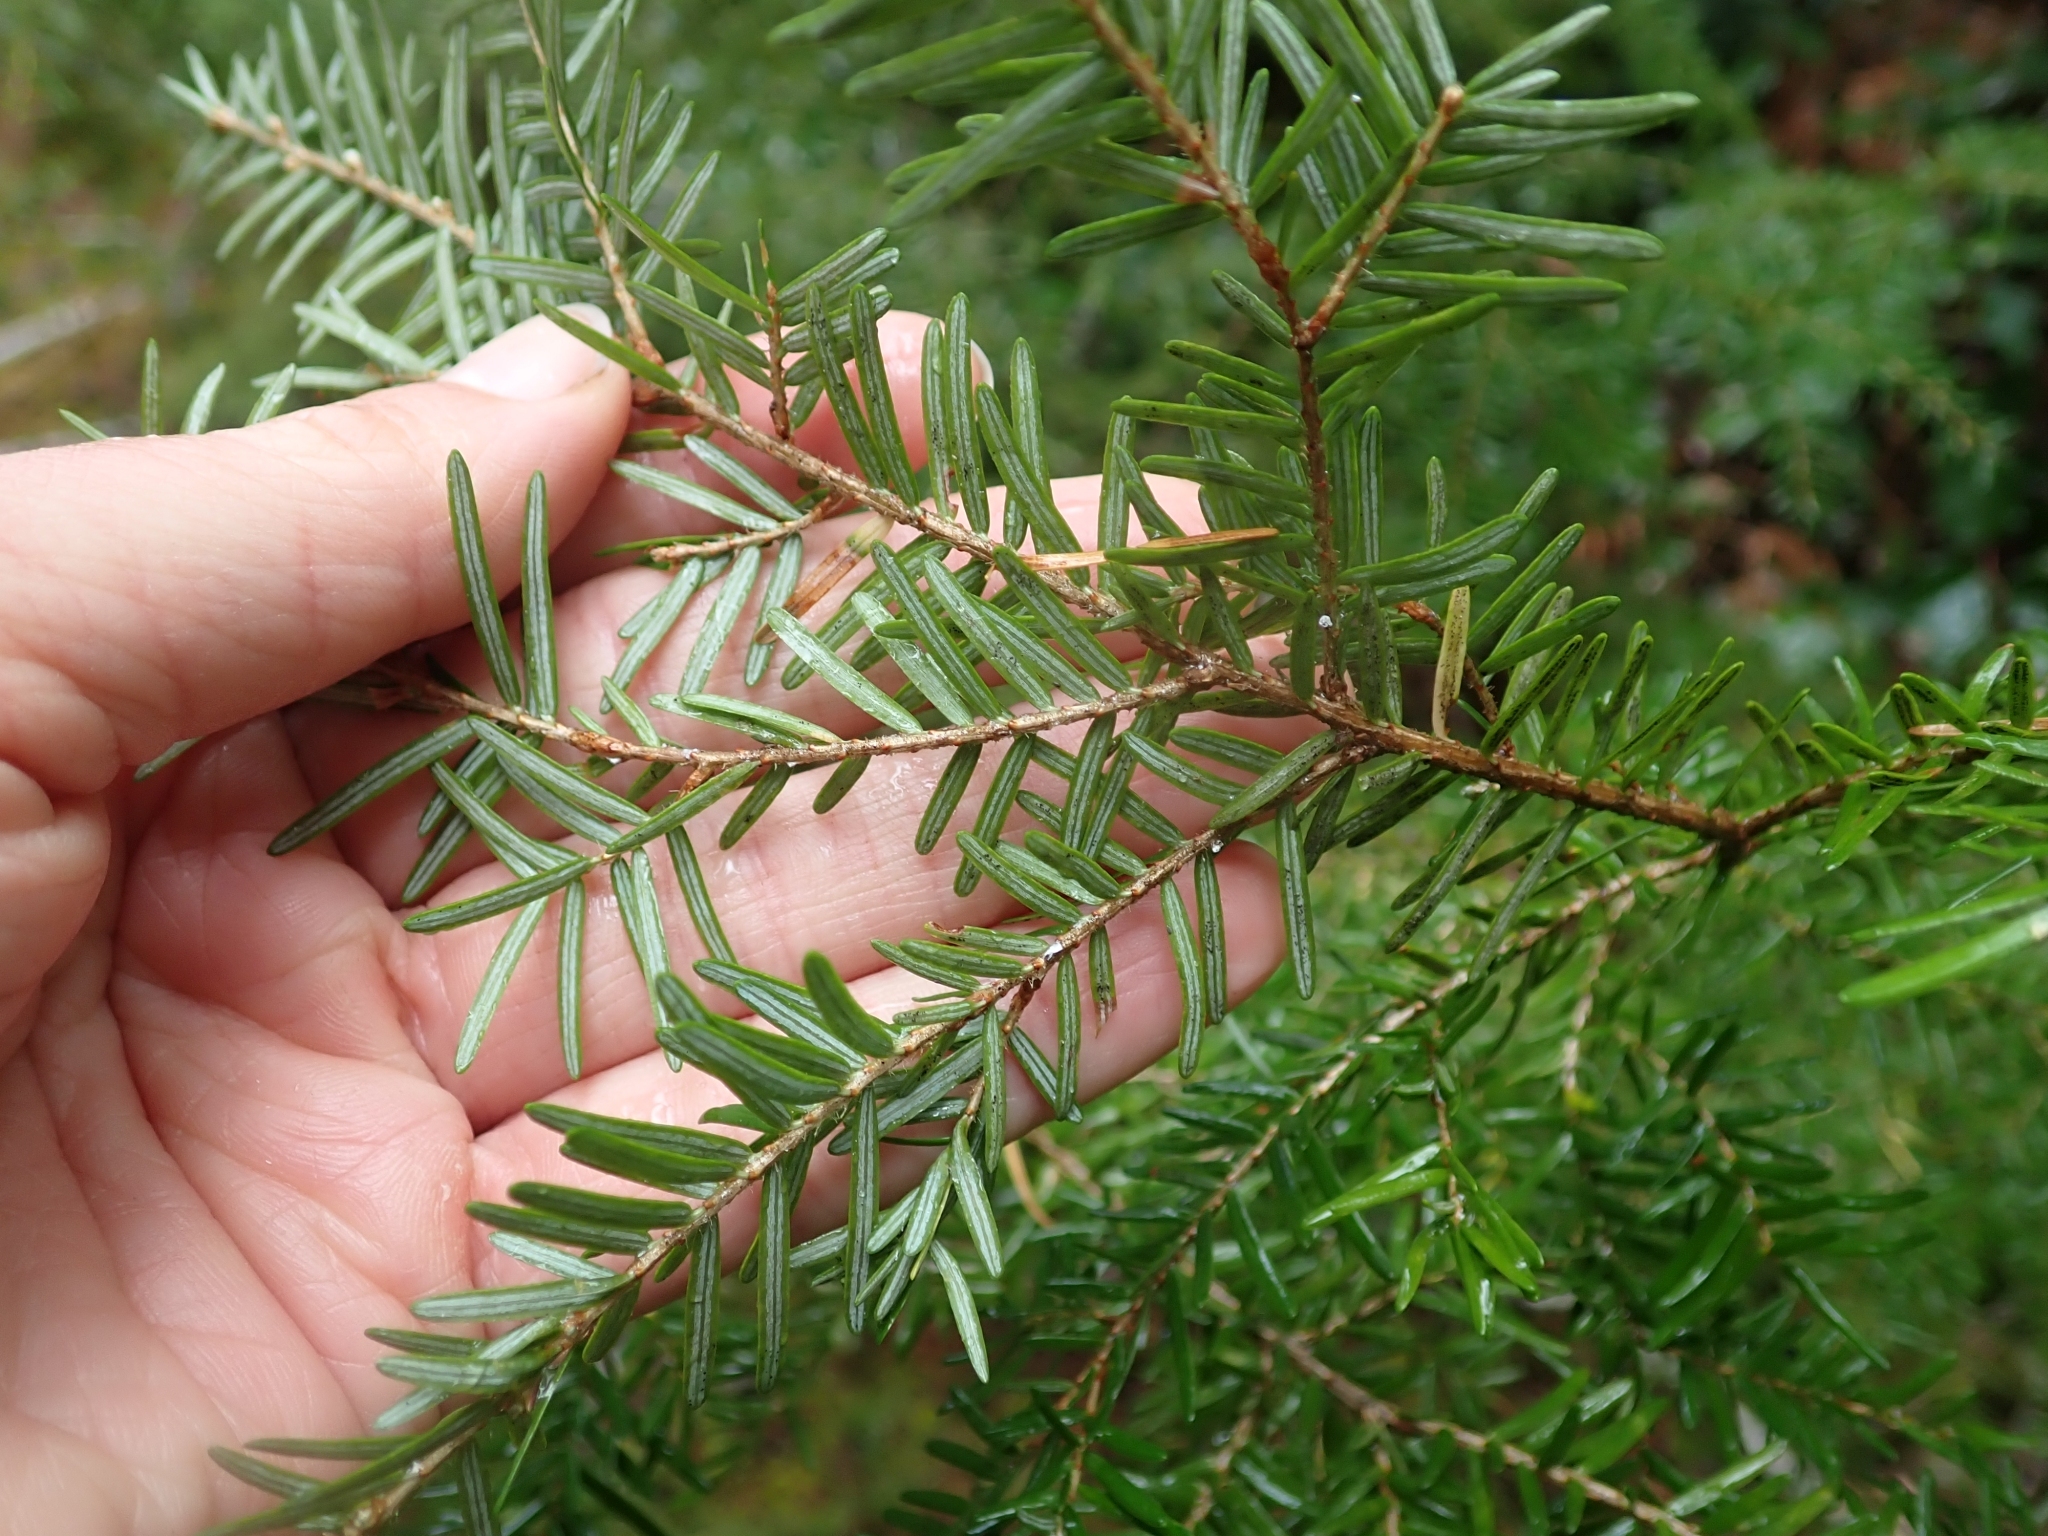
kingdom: Plantae
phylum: Tracheophyta
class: Pinopsida
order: Pinales
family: Pinaceae
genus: Tsuga
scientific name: Tsuga heterophylla
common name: Western hemlock
